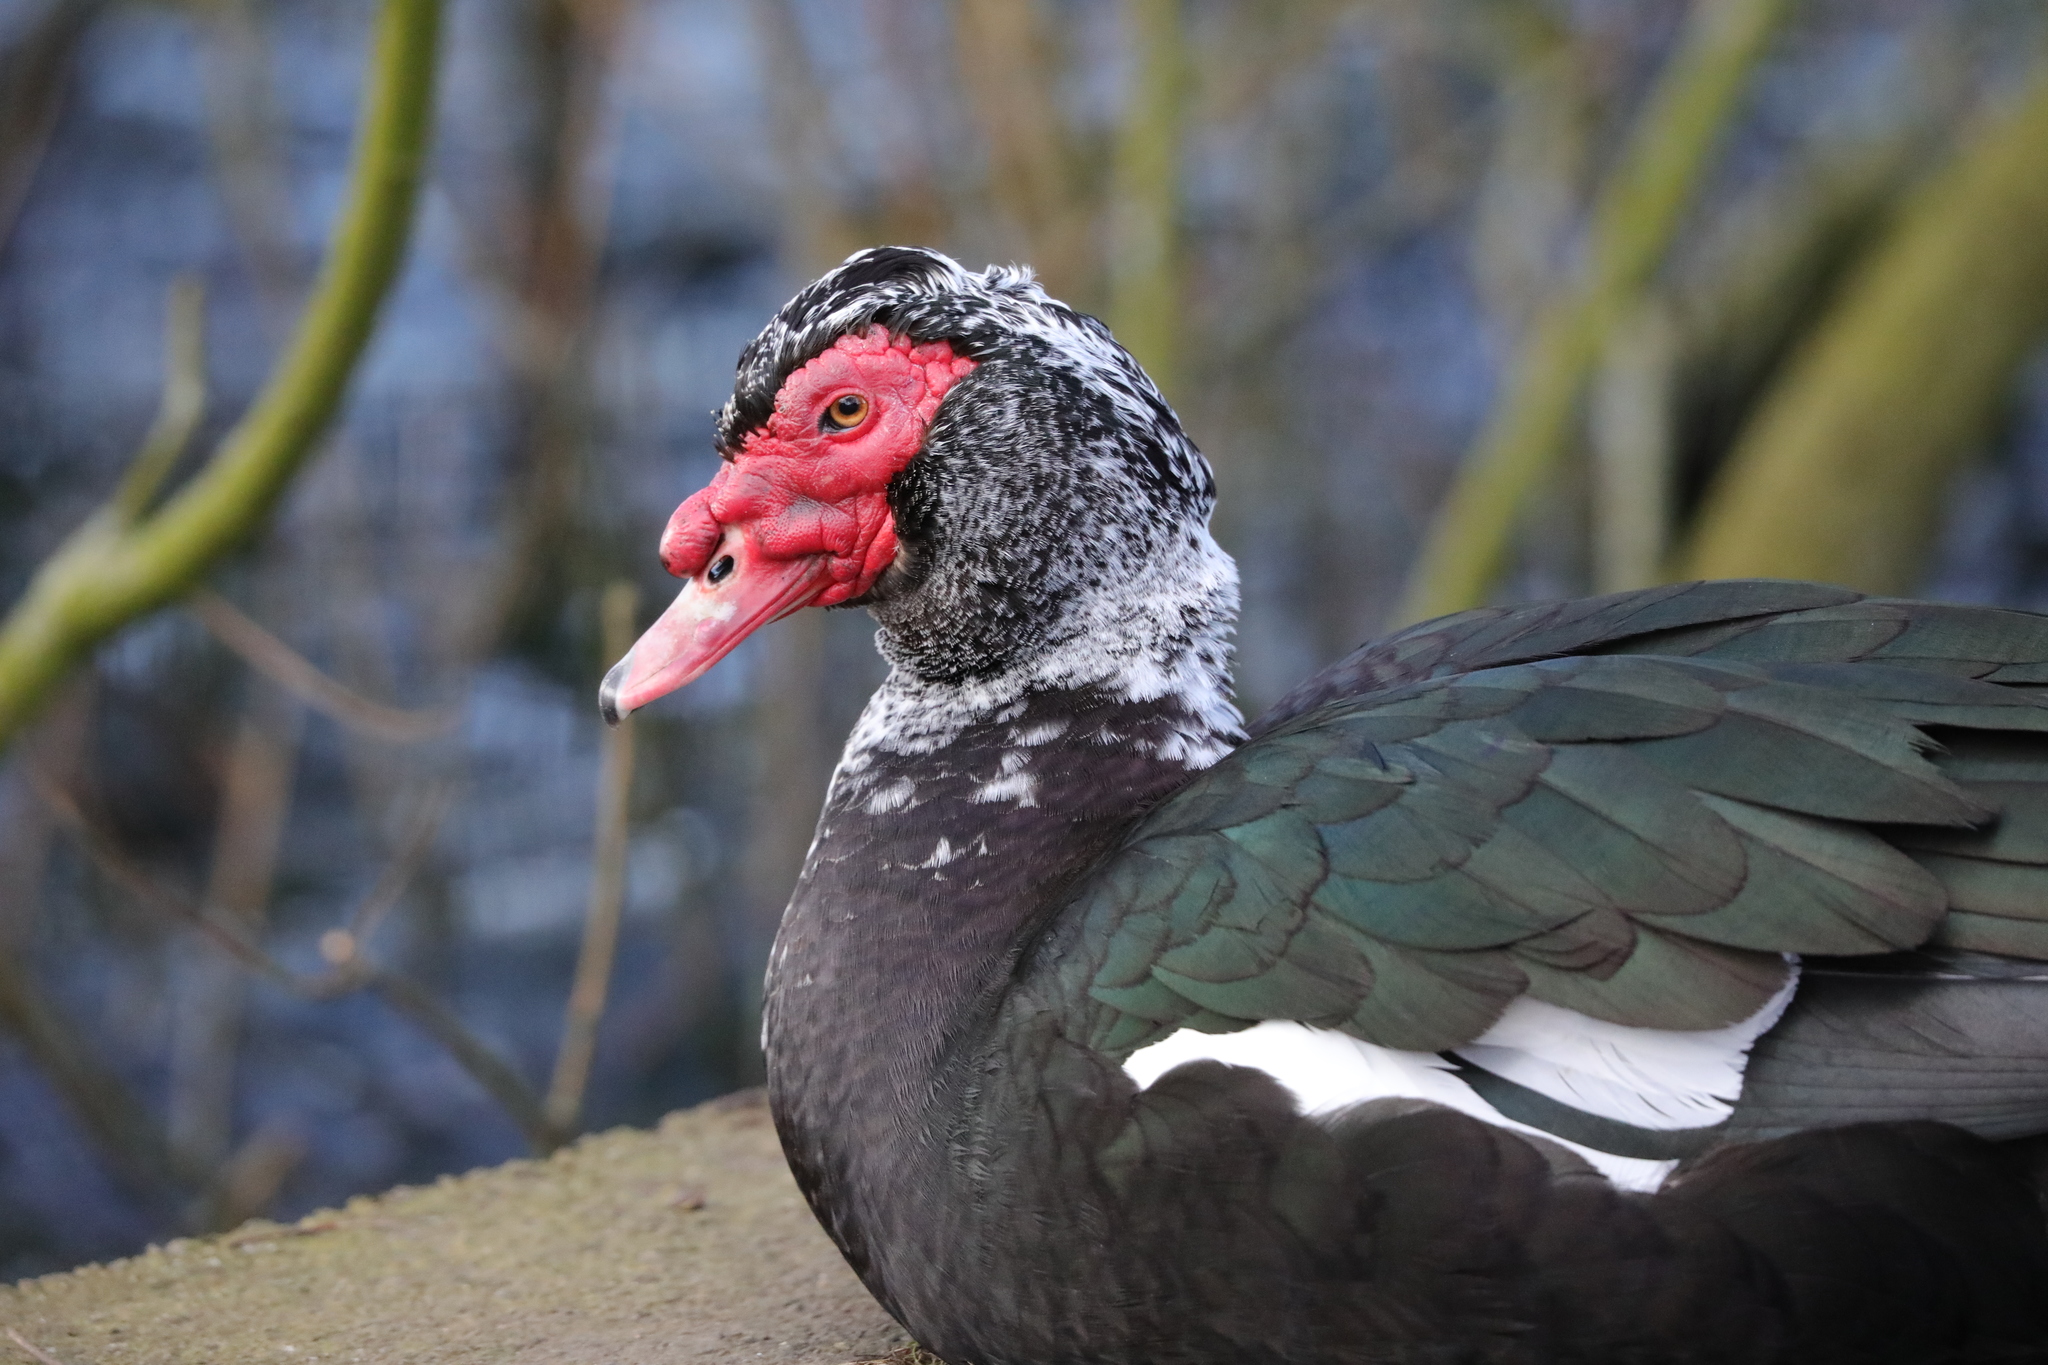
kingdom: Animalia
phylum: Chordata
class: Aves
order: Anseriformes
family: Anatidae
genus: Cairina
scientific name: Cairina moschata
